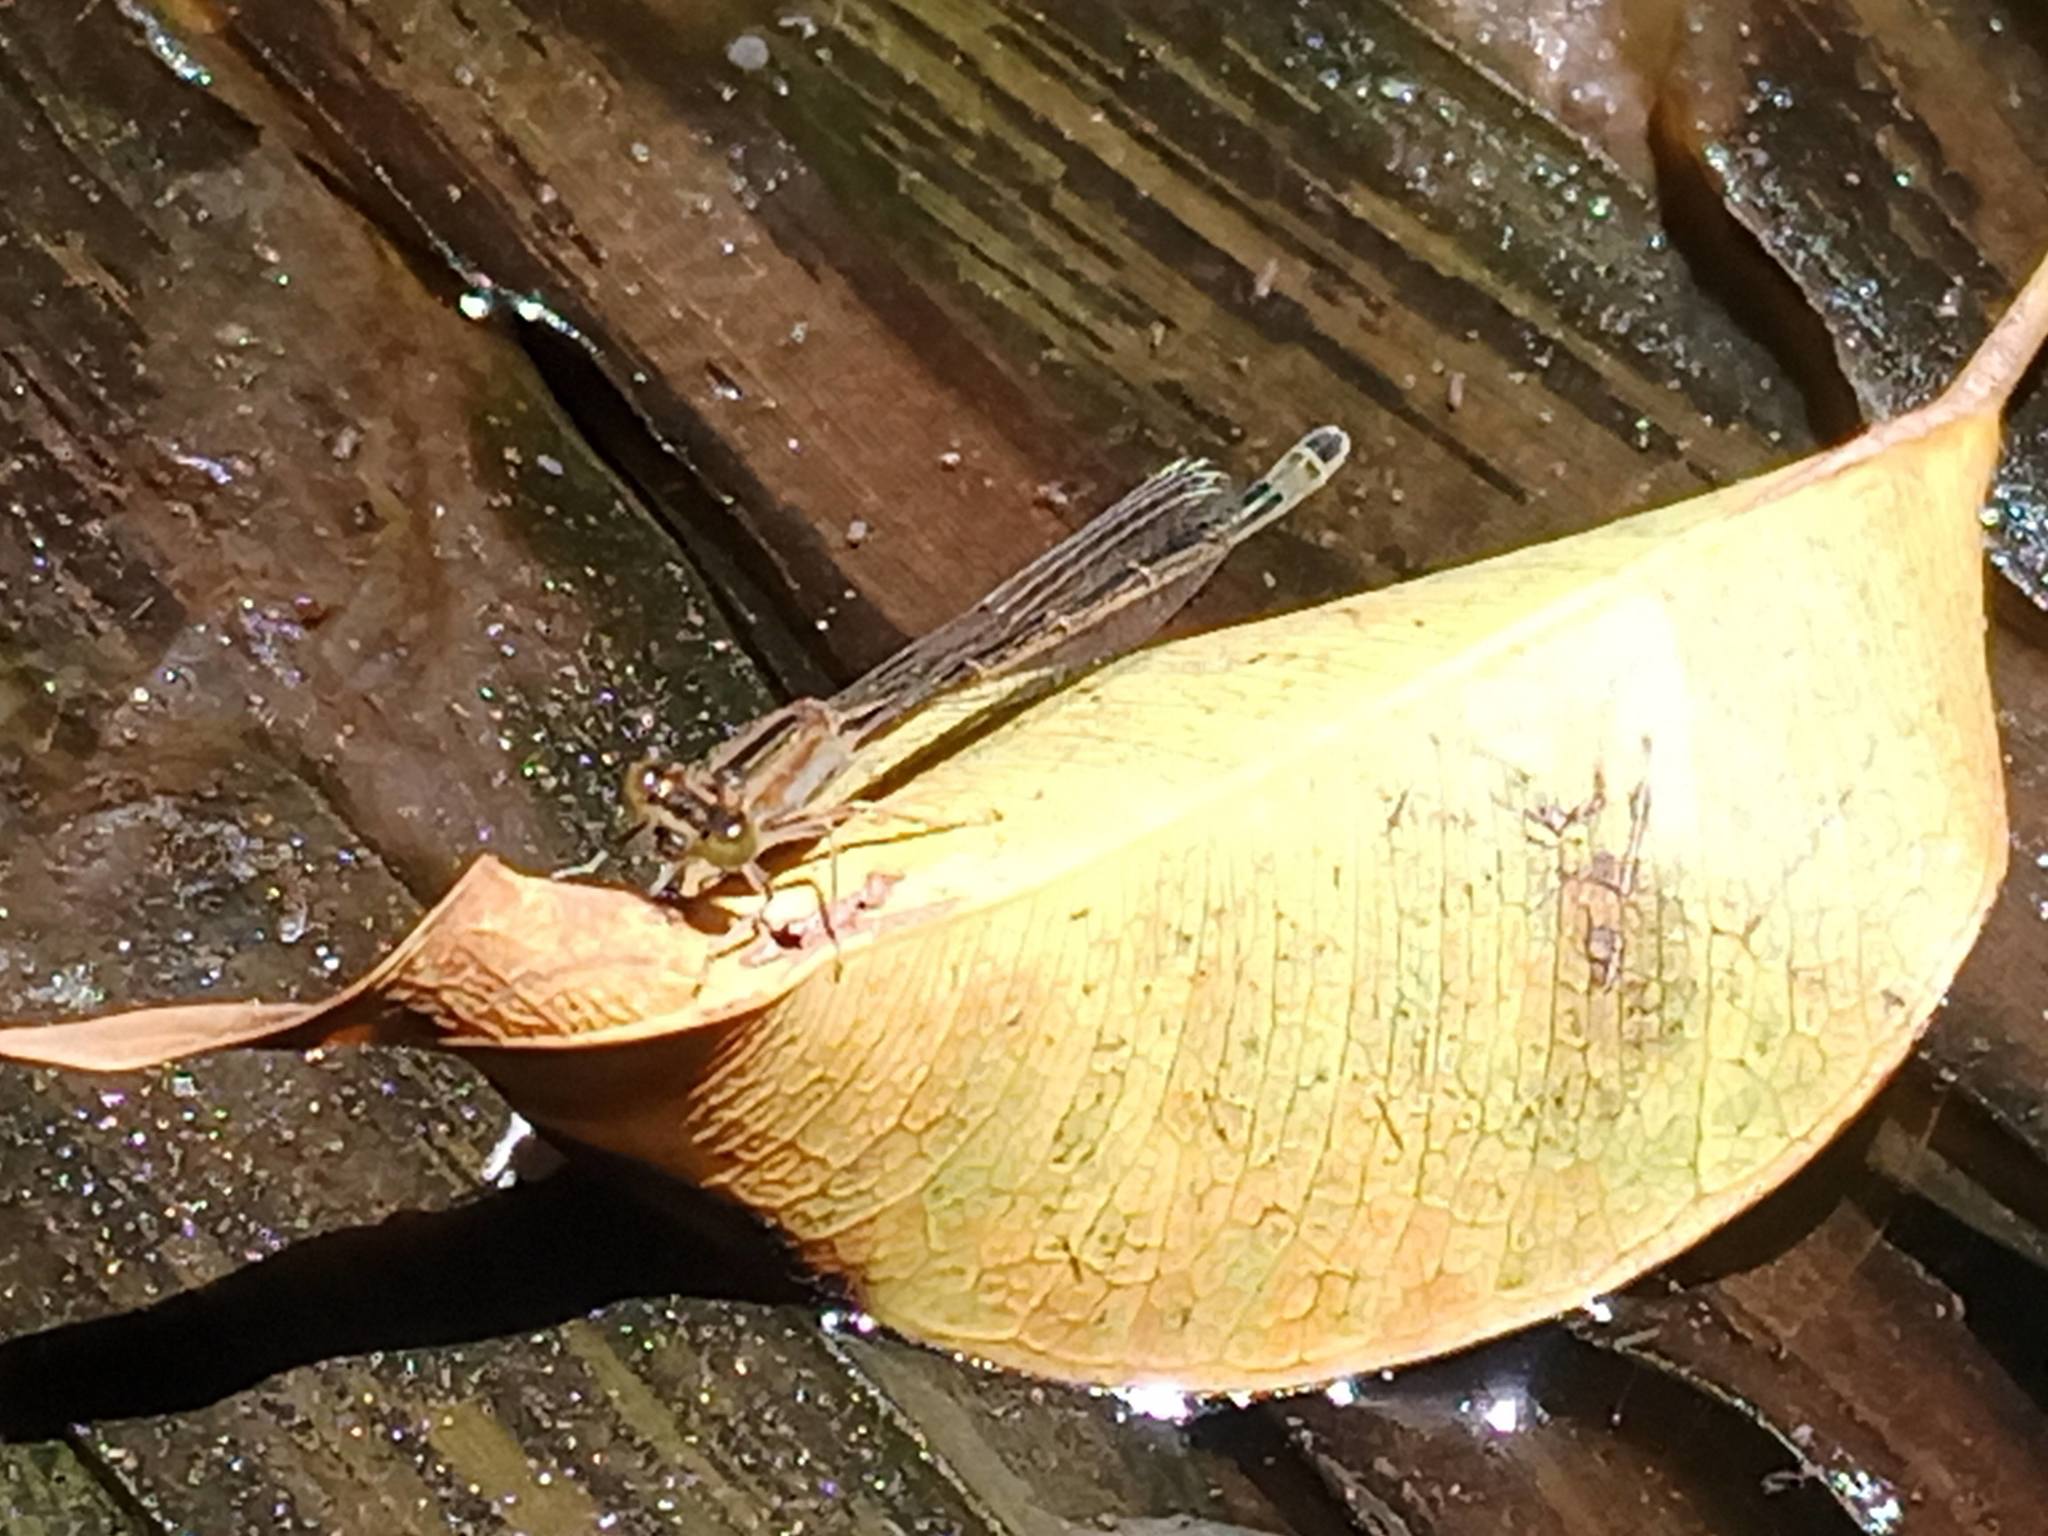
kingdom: Animalia
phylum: Arthropoda
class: Insecta
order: Odonata
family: Coenagrionidae
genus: Ischnura
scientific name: Ischnura saharensis
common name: Sahara bluetail
